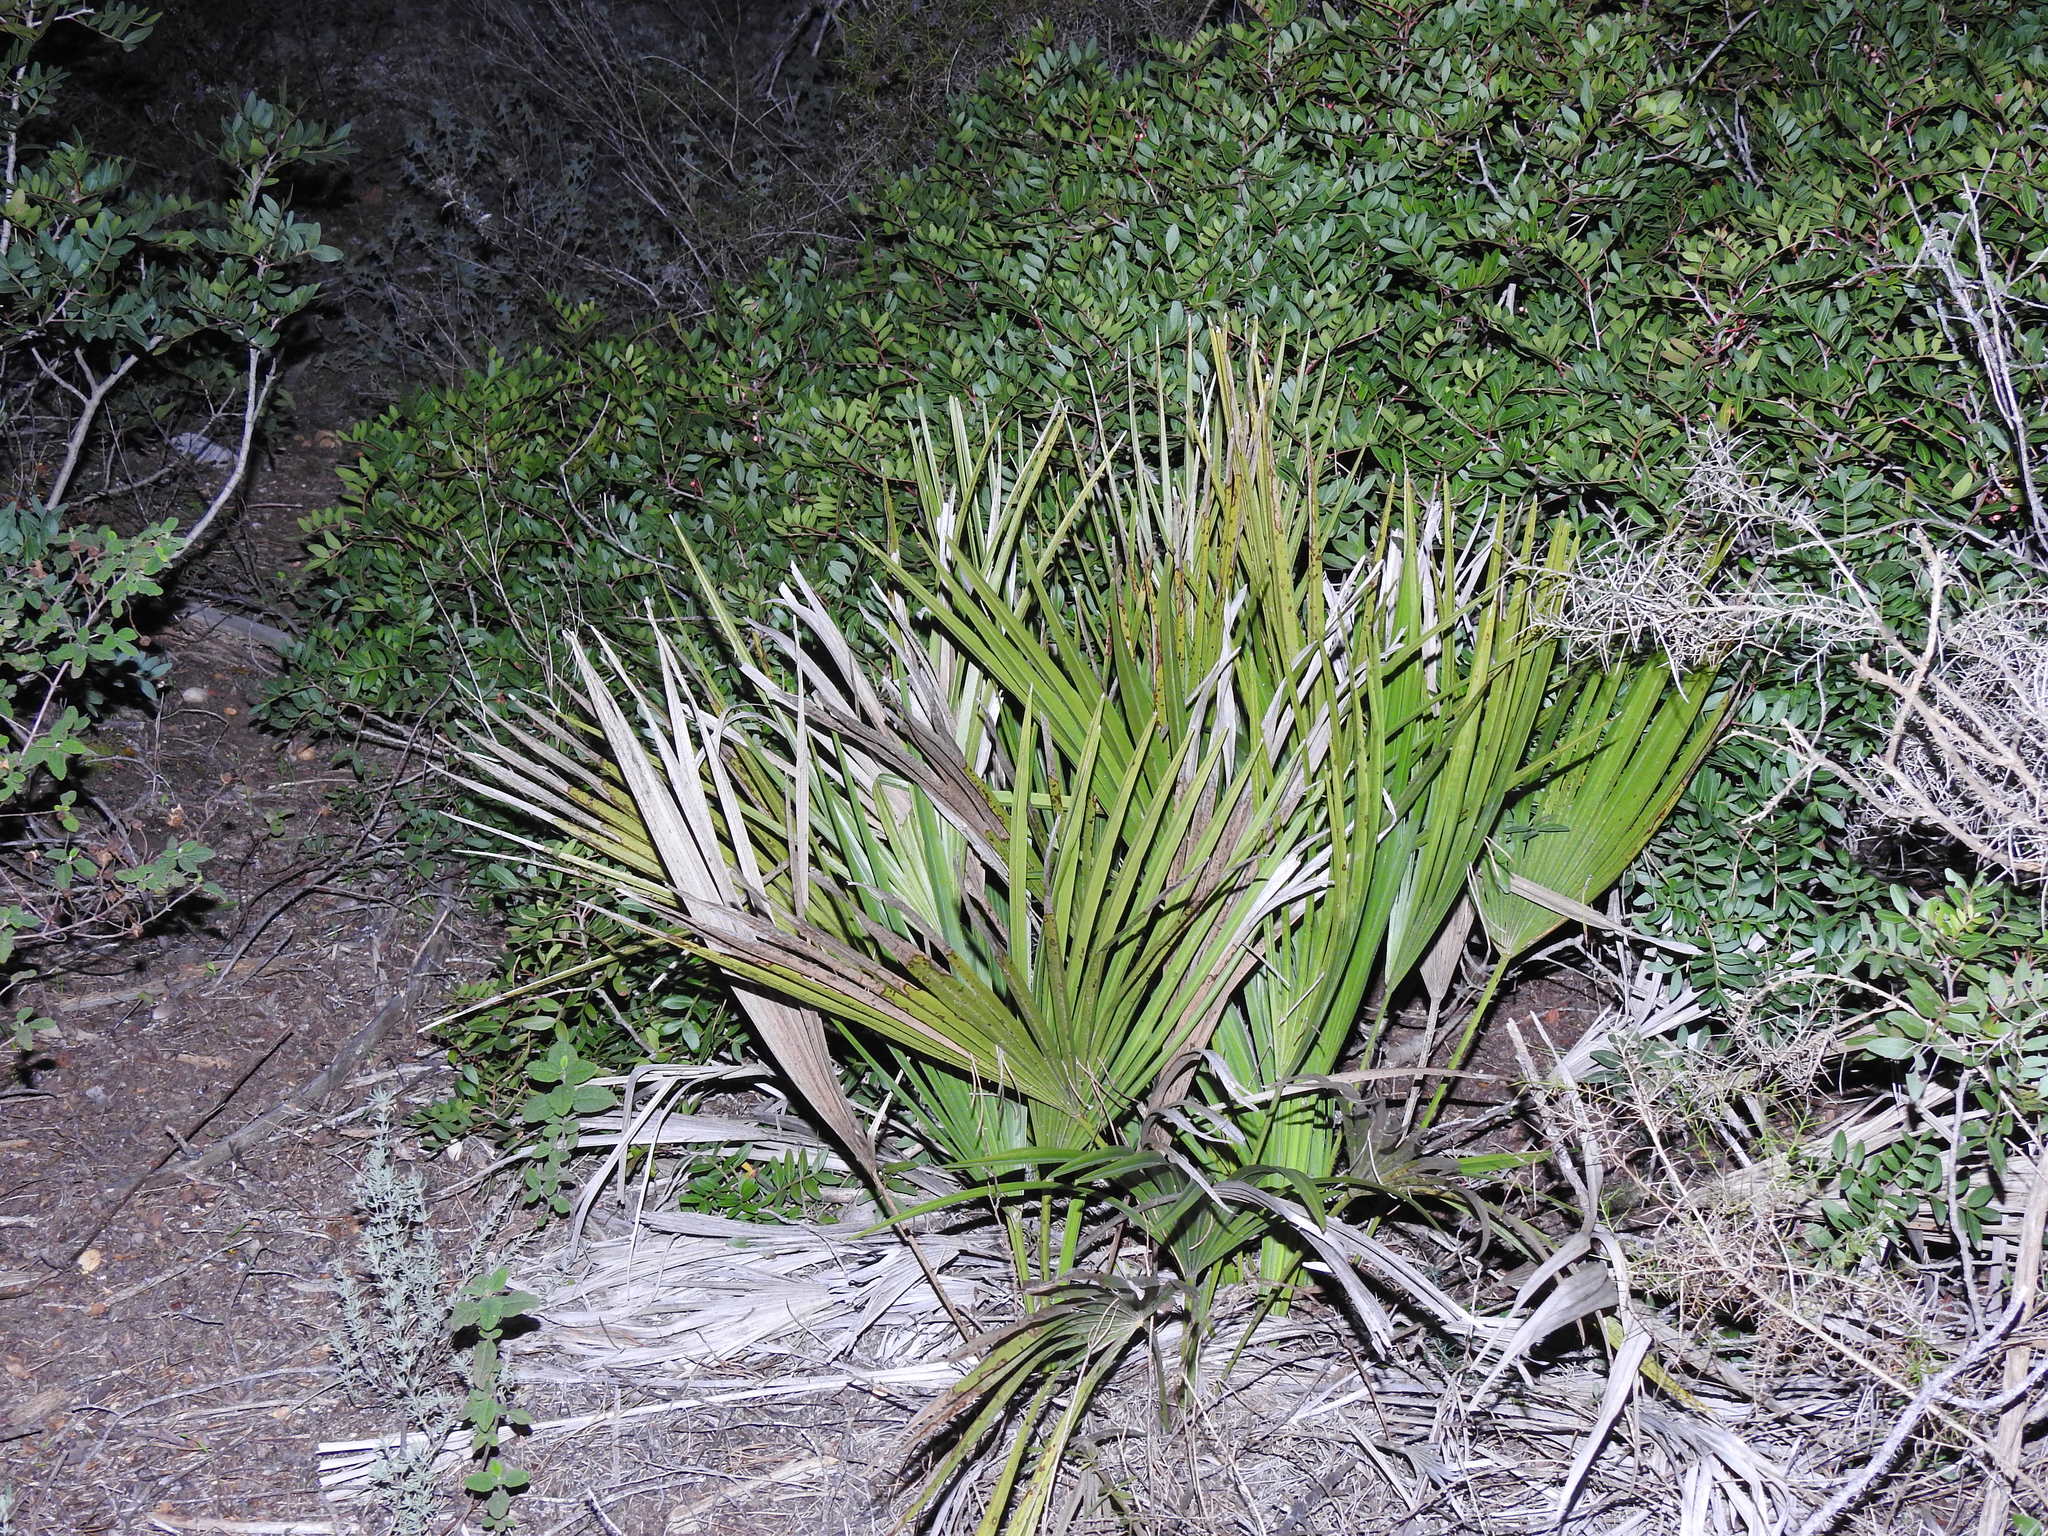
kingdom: Plantae
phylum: Tracheophyta
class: Liliopsida
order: Arecales
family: Arecaceae
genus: Chamaerops
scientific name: Chamaerops humilis
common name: Dwarf fan palm
